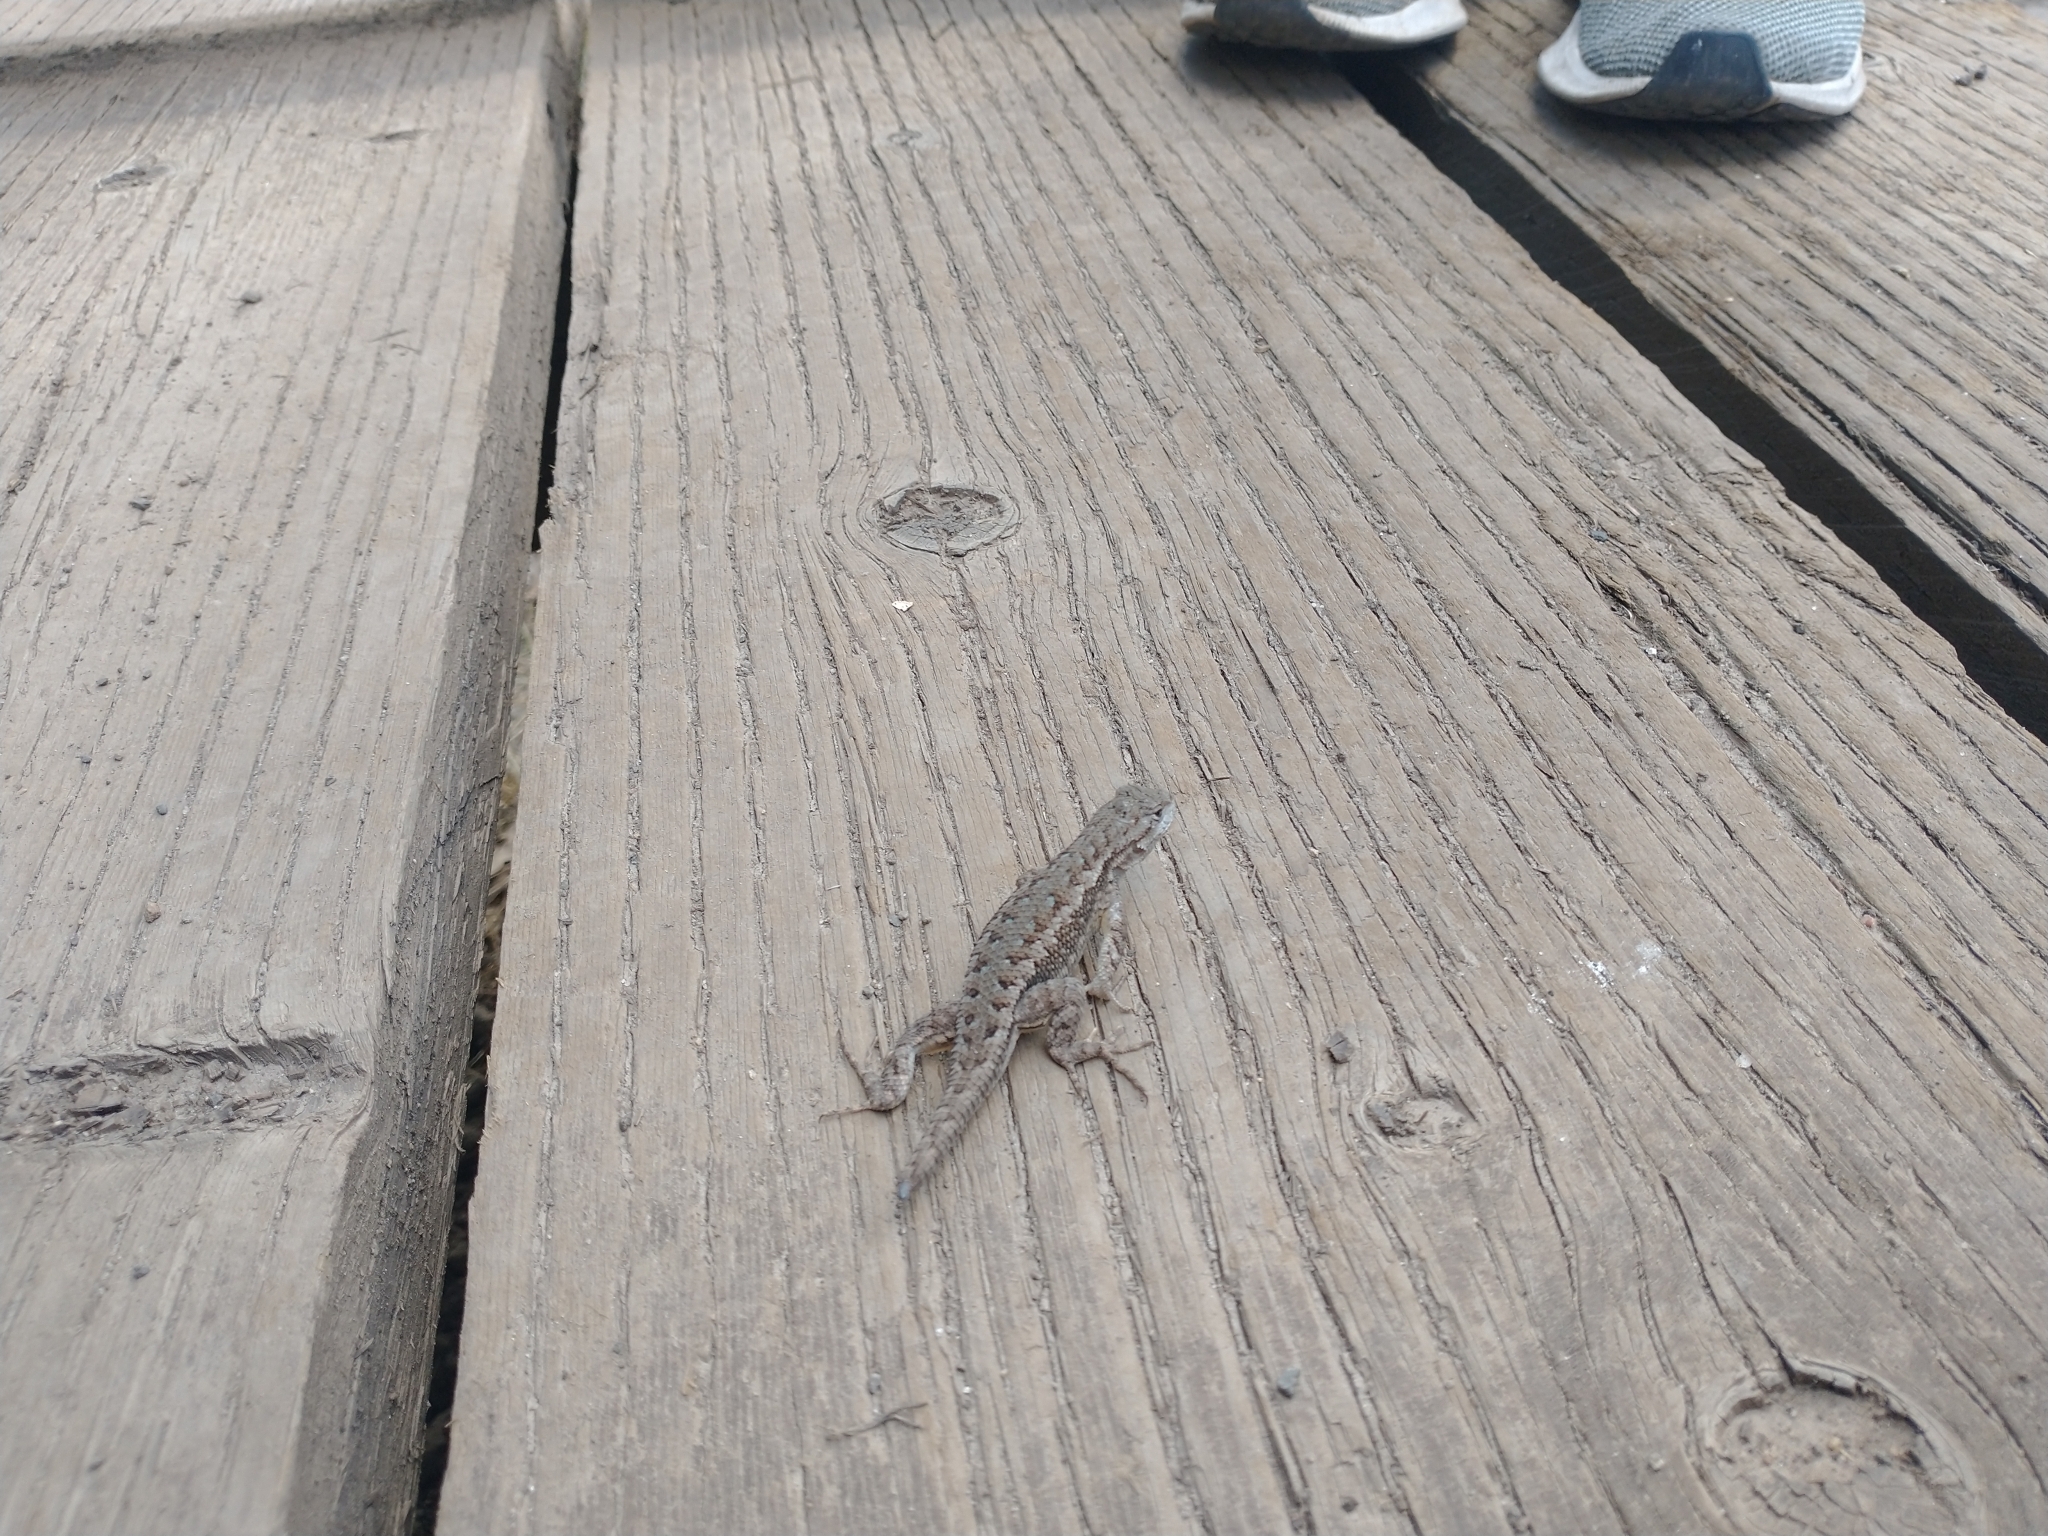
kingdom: Animalia
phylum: Chordata
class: Squamata
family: Phrynosomatidae
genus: Sceloporus
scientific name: Sceloporus occidentalis
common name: Western fence lizard
